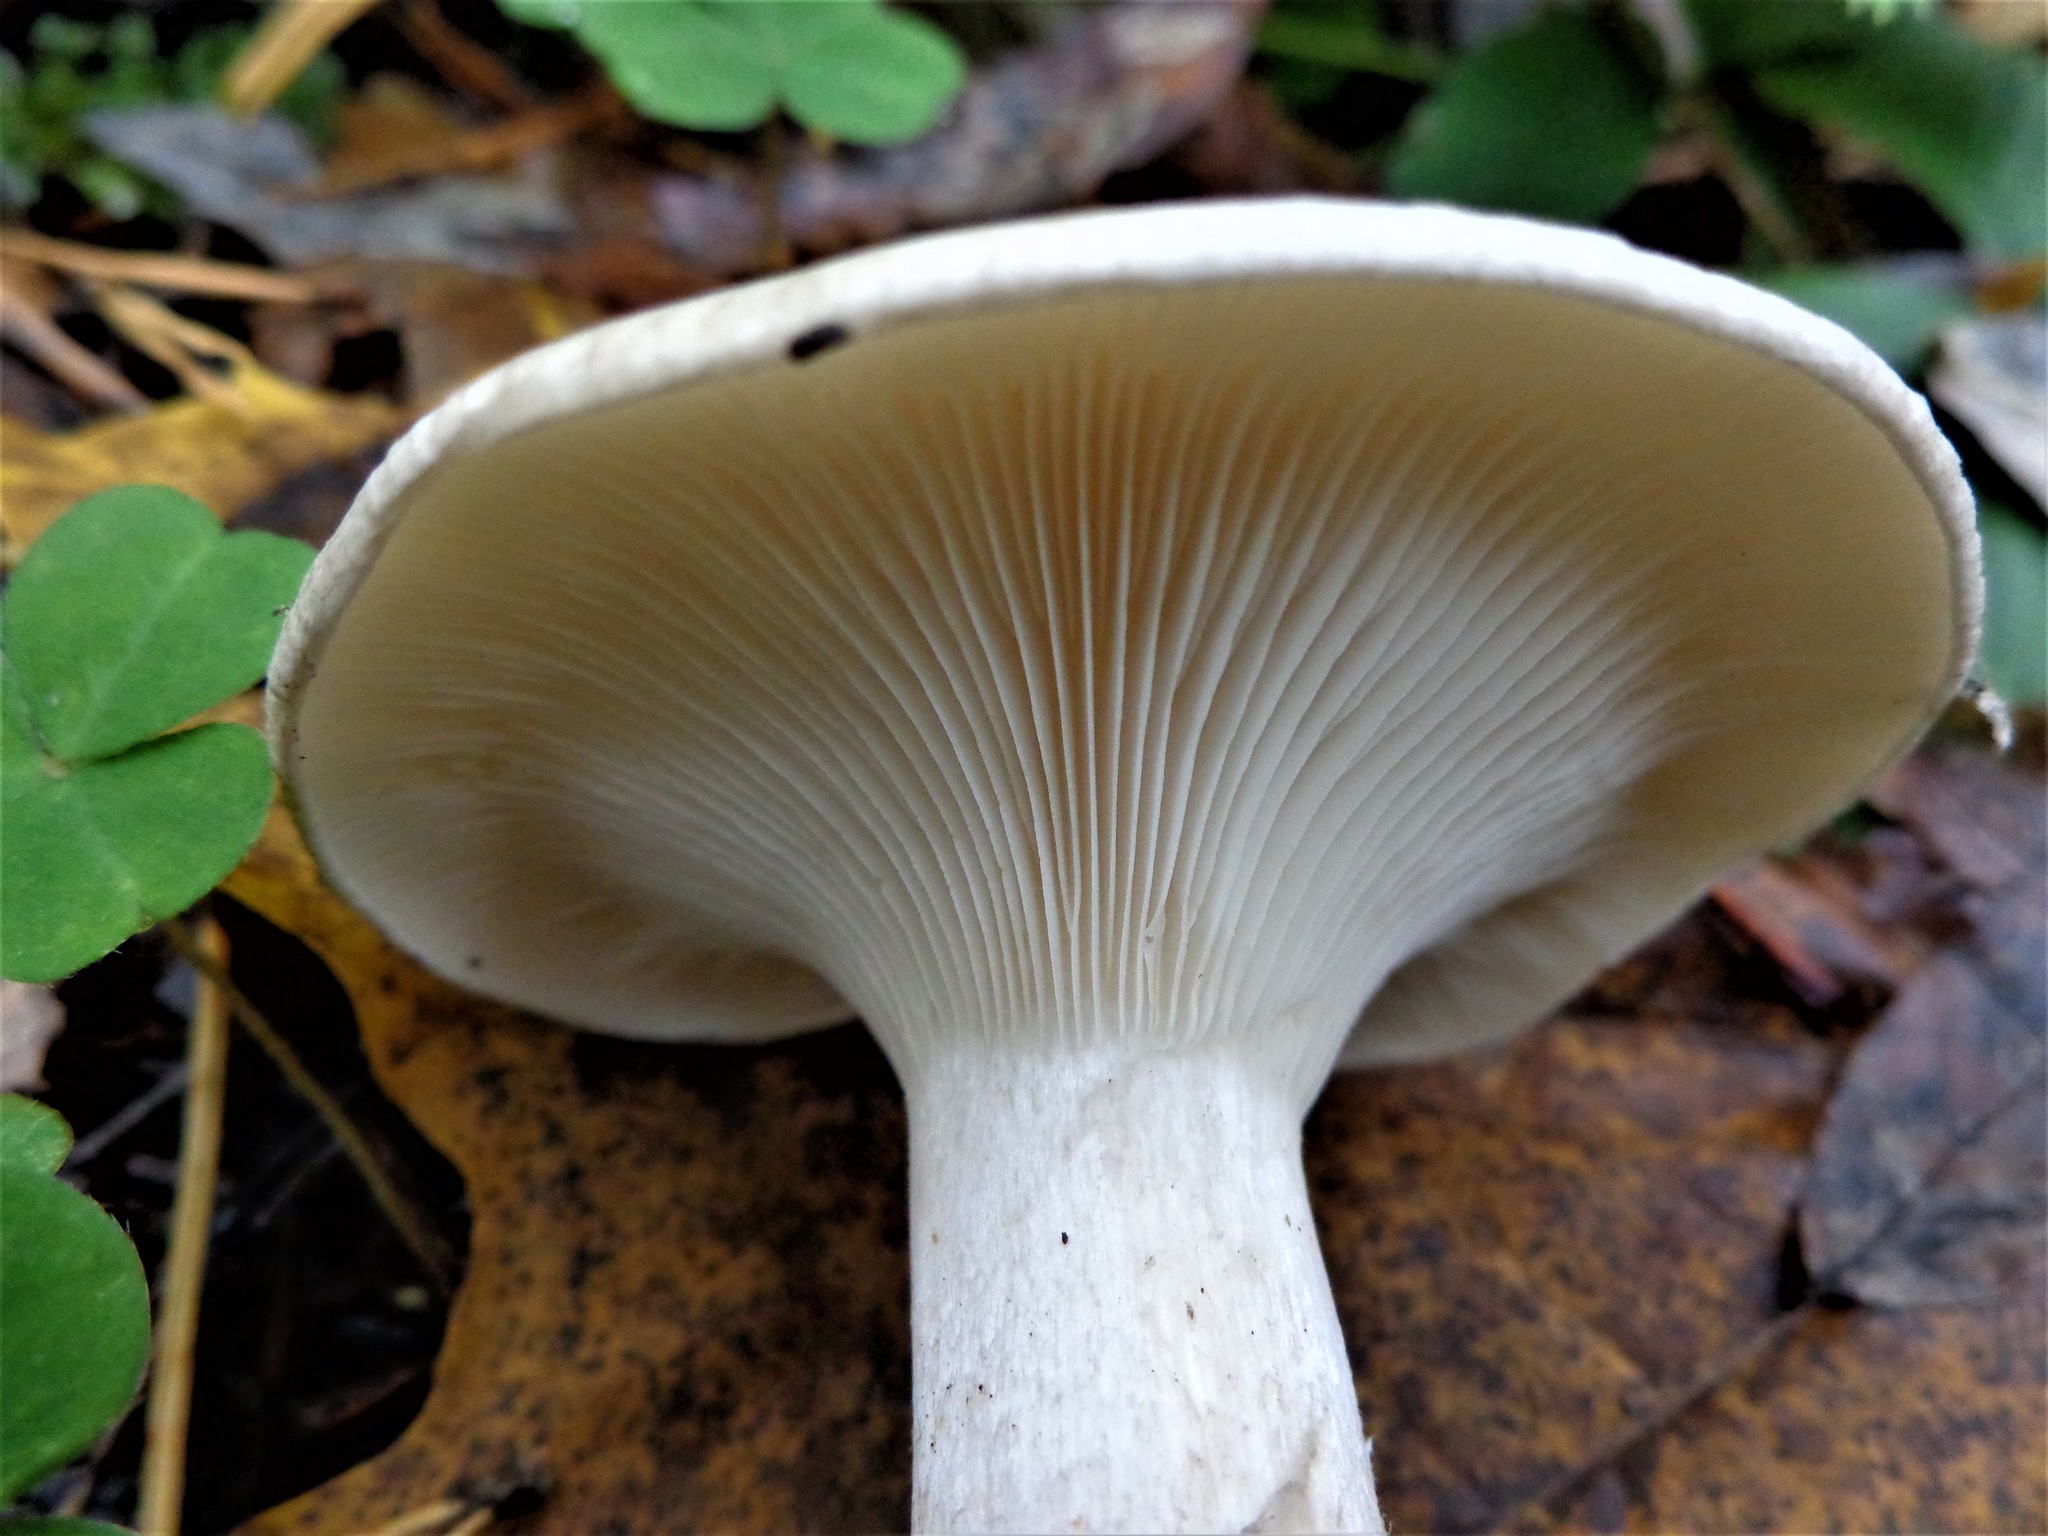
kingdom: Fungi
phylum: Basidiomycota
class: Agaricomycetes
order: Agaricales
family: Tricholomataceae
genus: Clitocybe
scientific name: Clitocybe nebularis
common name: Clouded agaric
